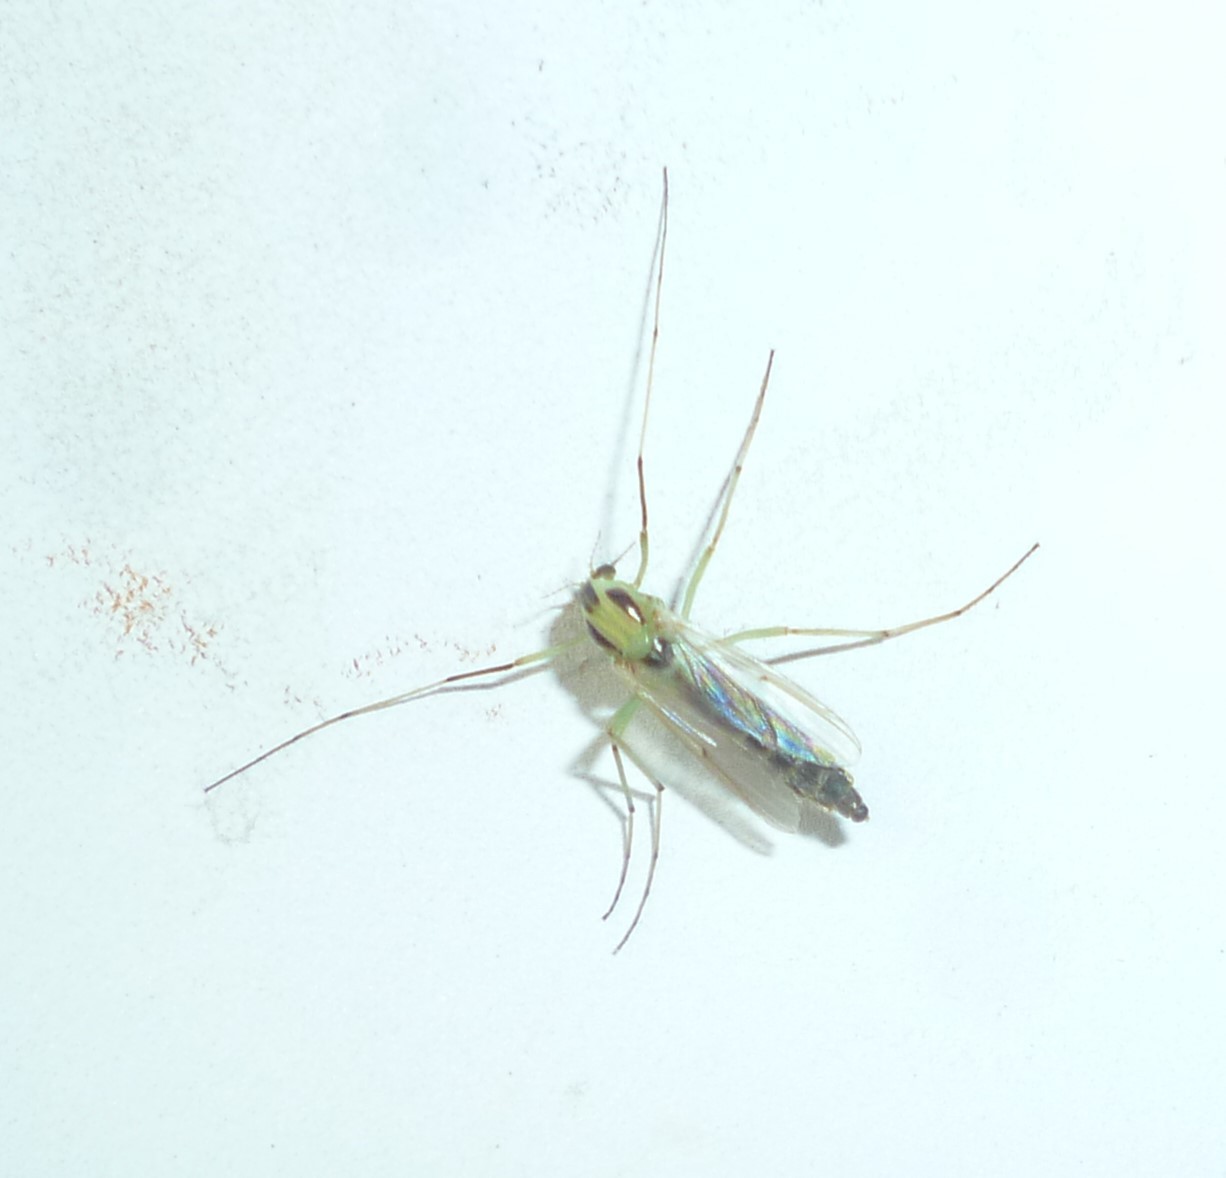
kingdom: Animalia
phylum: Arthropoda
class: Insecta
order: Diptera
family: Chironomidae
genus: Chironomus
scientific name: Chironomus atroviridis
